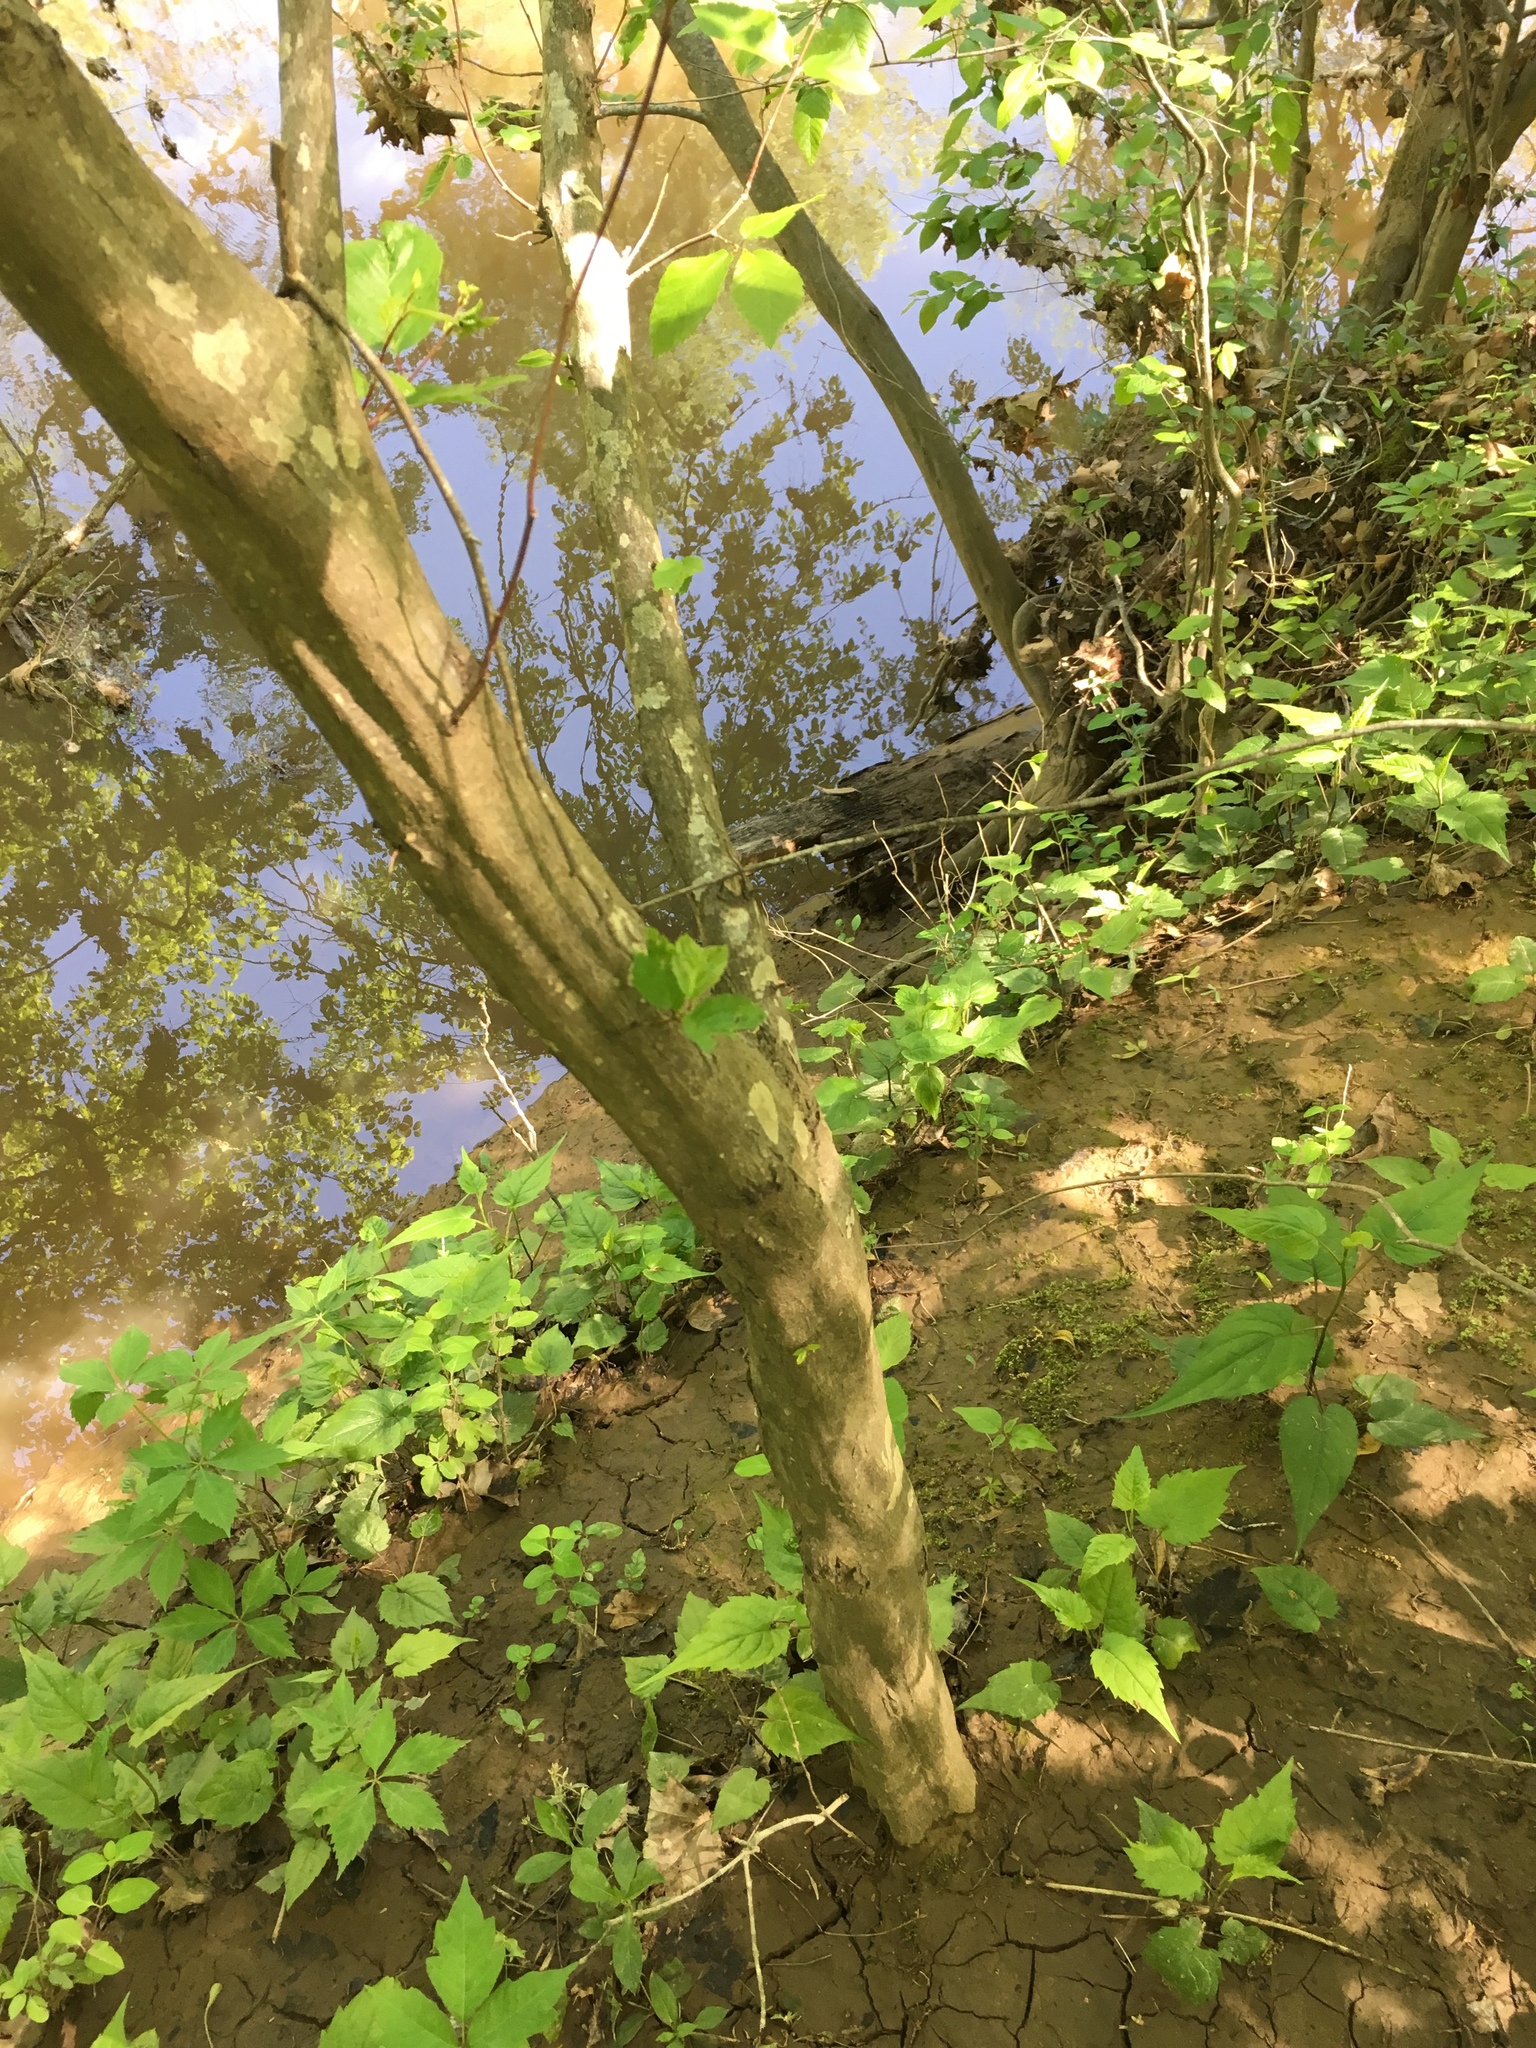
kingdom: Plantae
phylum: Tracheophyta
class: Magnoliopsida
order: Fagales
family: Betulaceae
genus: Carpinus
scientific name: Carpinus caroliniana
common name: American hornbeam
